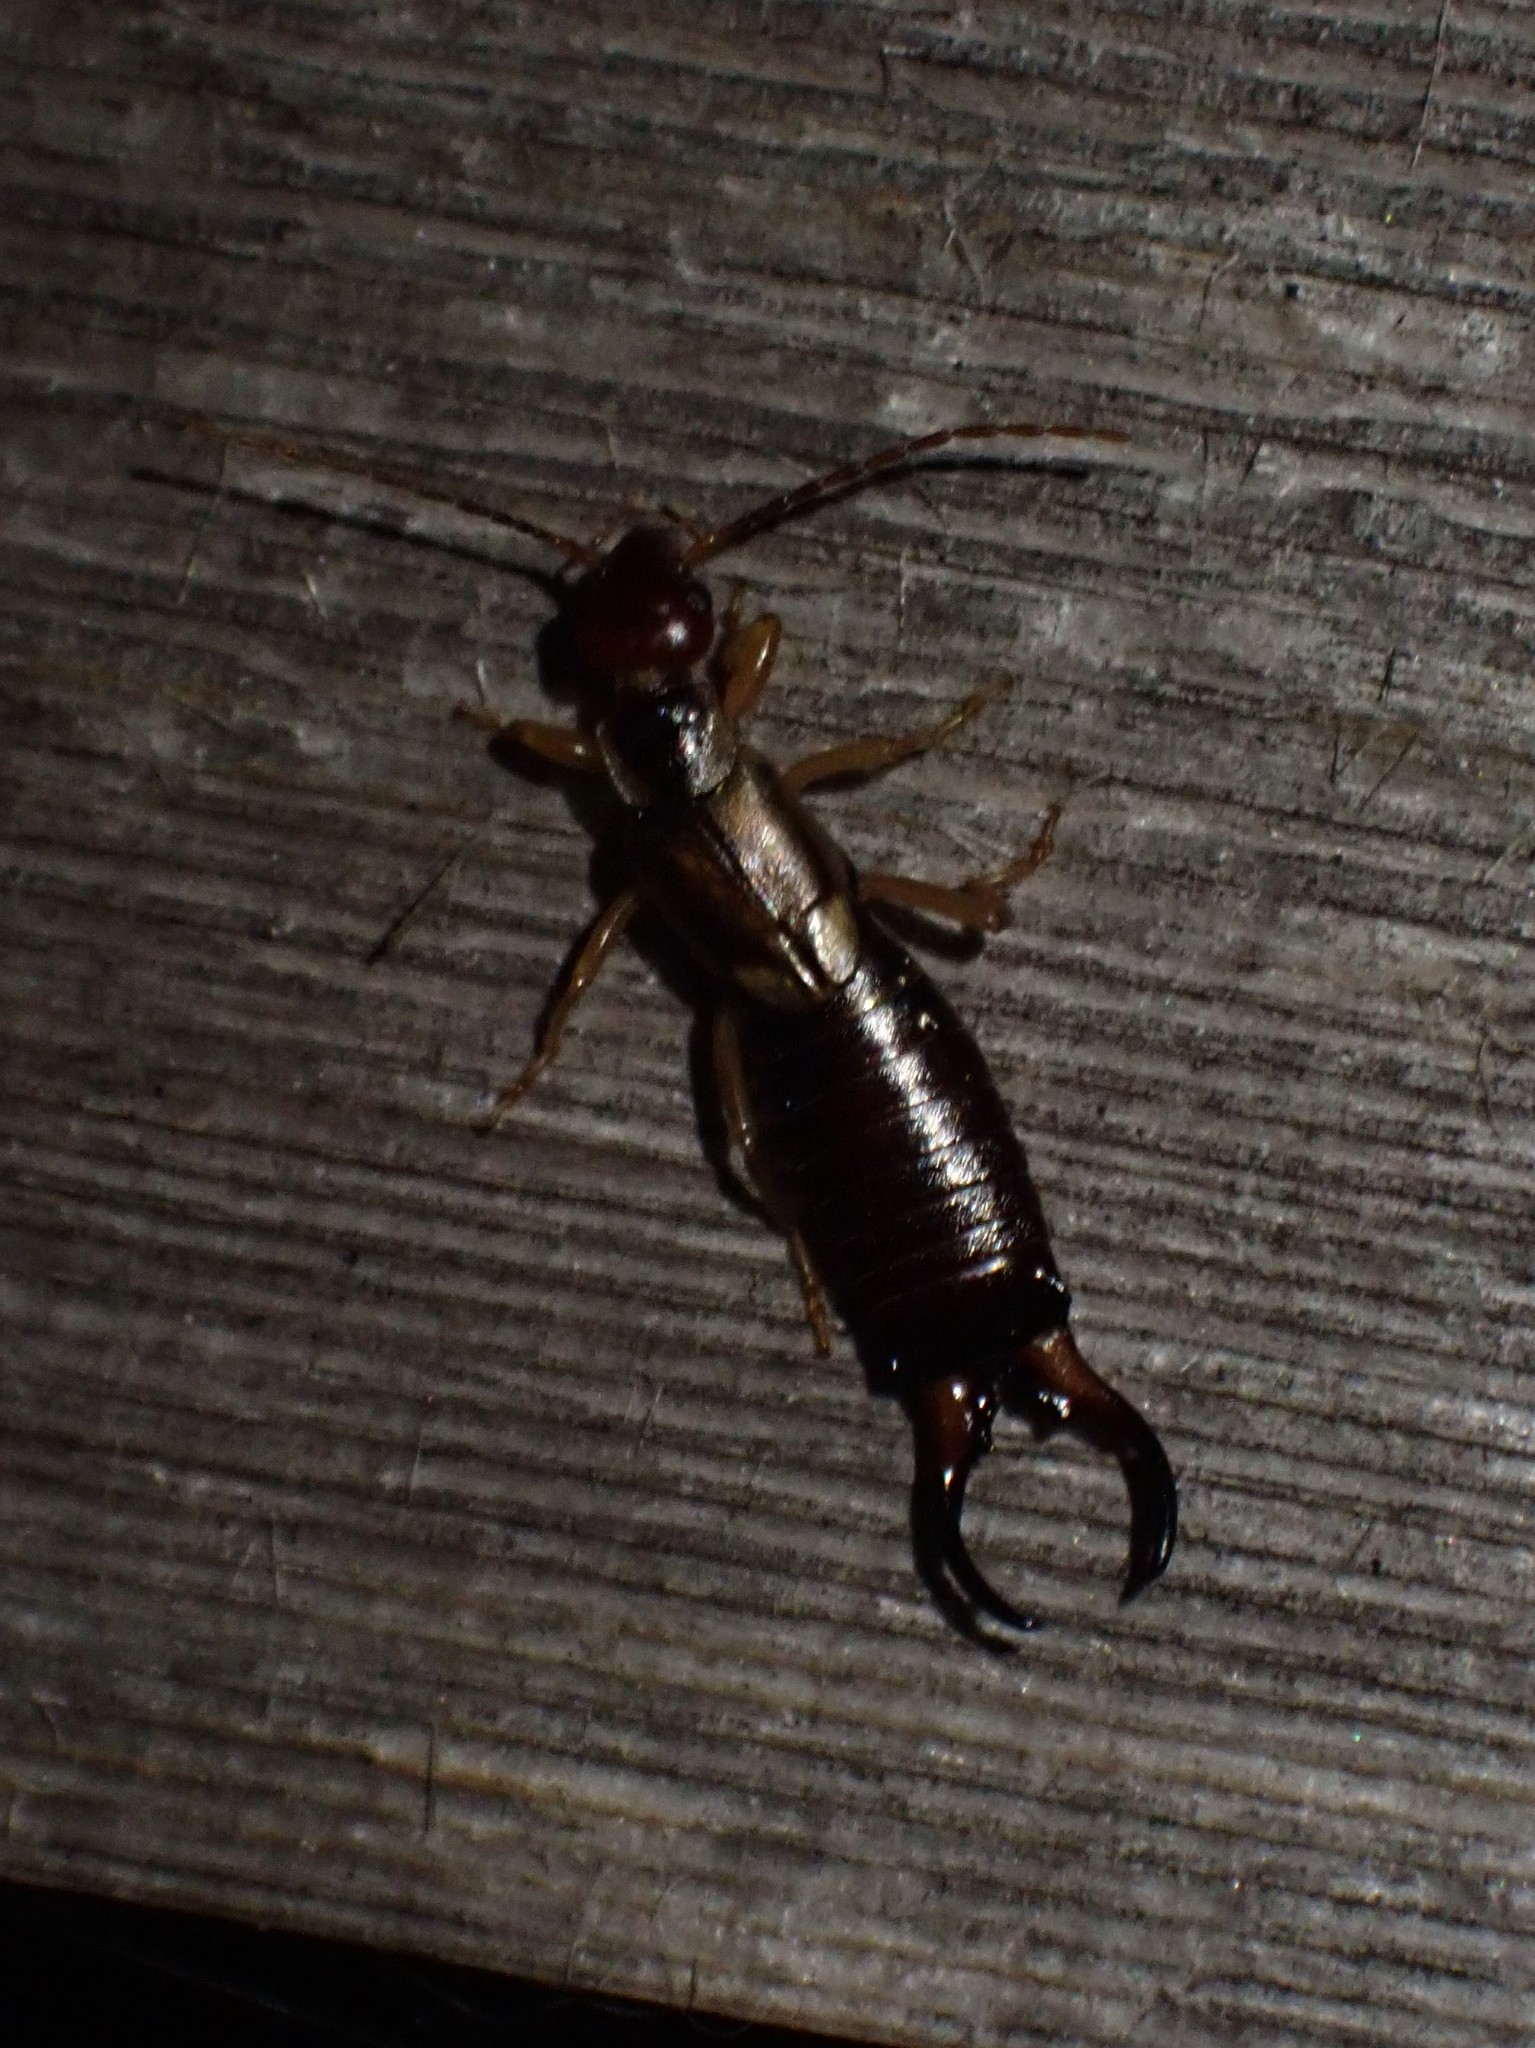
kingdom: Animalia
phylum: Arthropoda
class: Insecta
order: Dermaptera
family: Forficulidae
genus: Forficula
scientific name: Forficula
